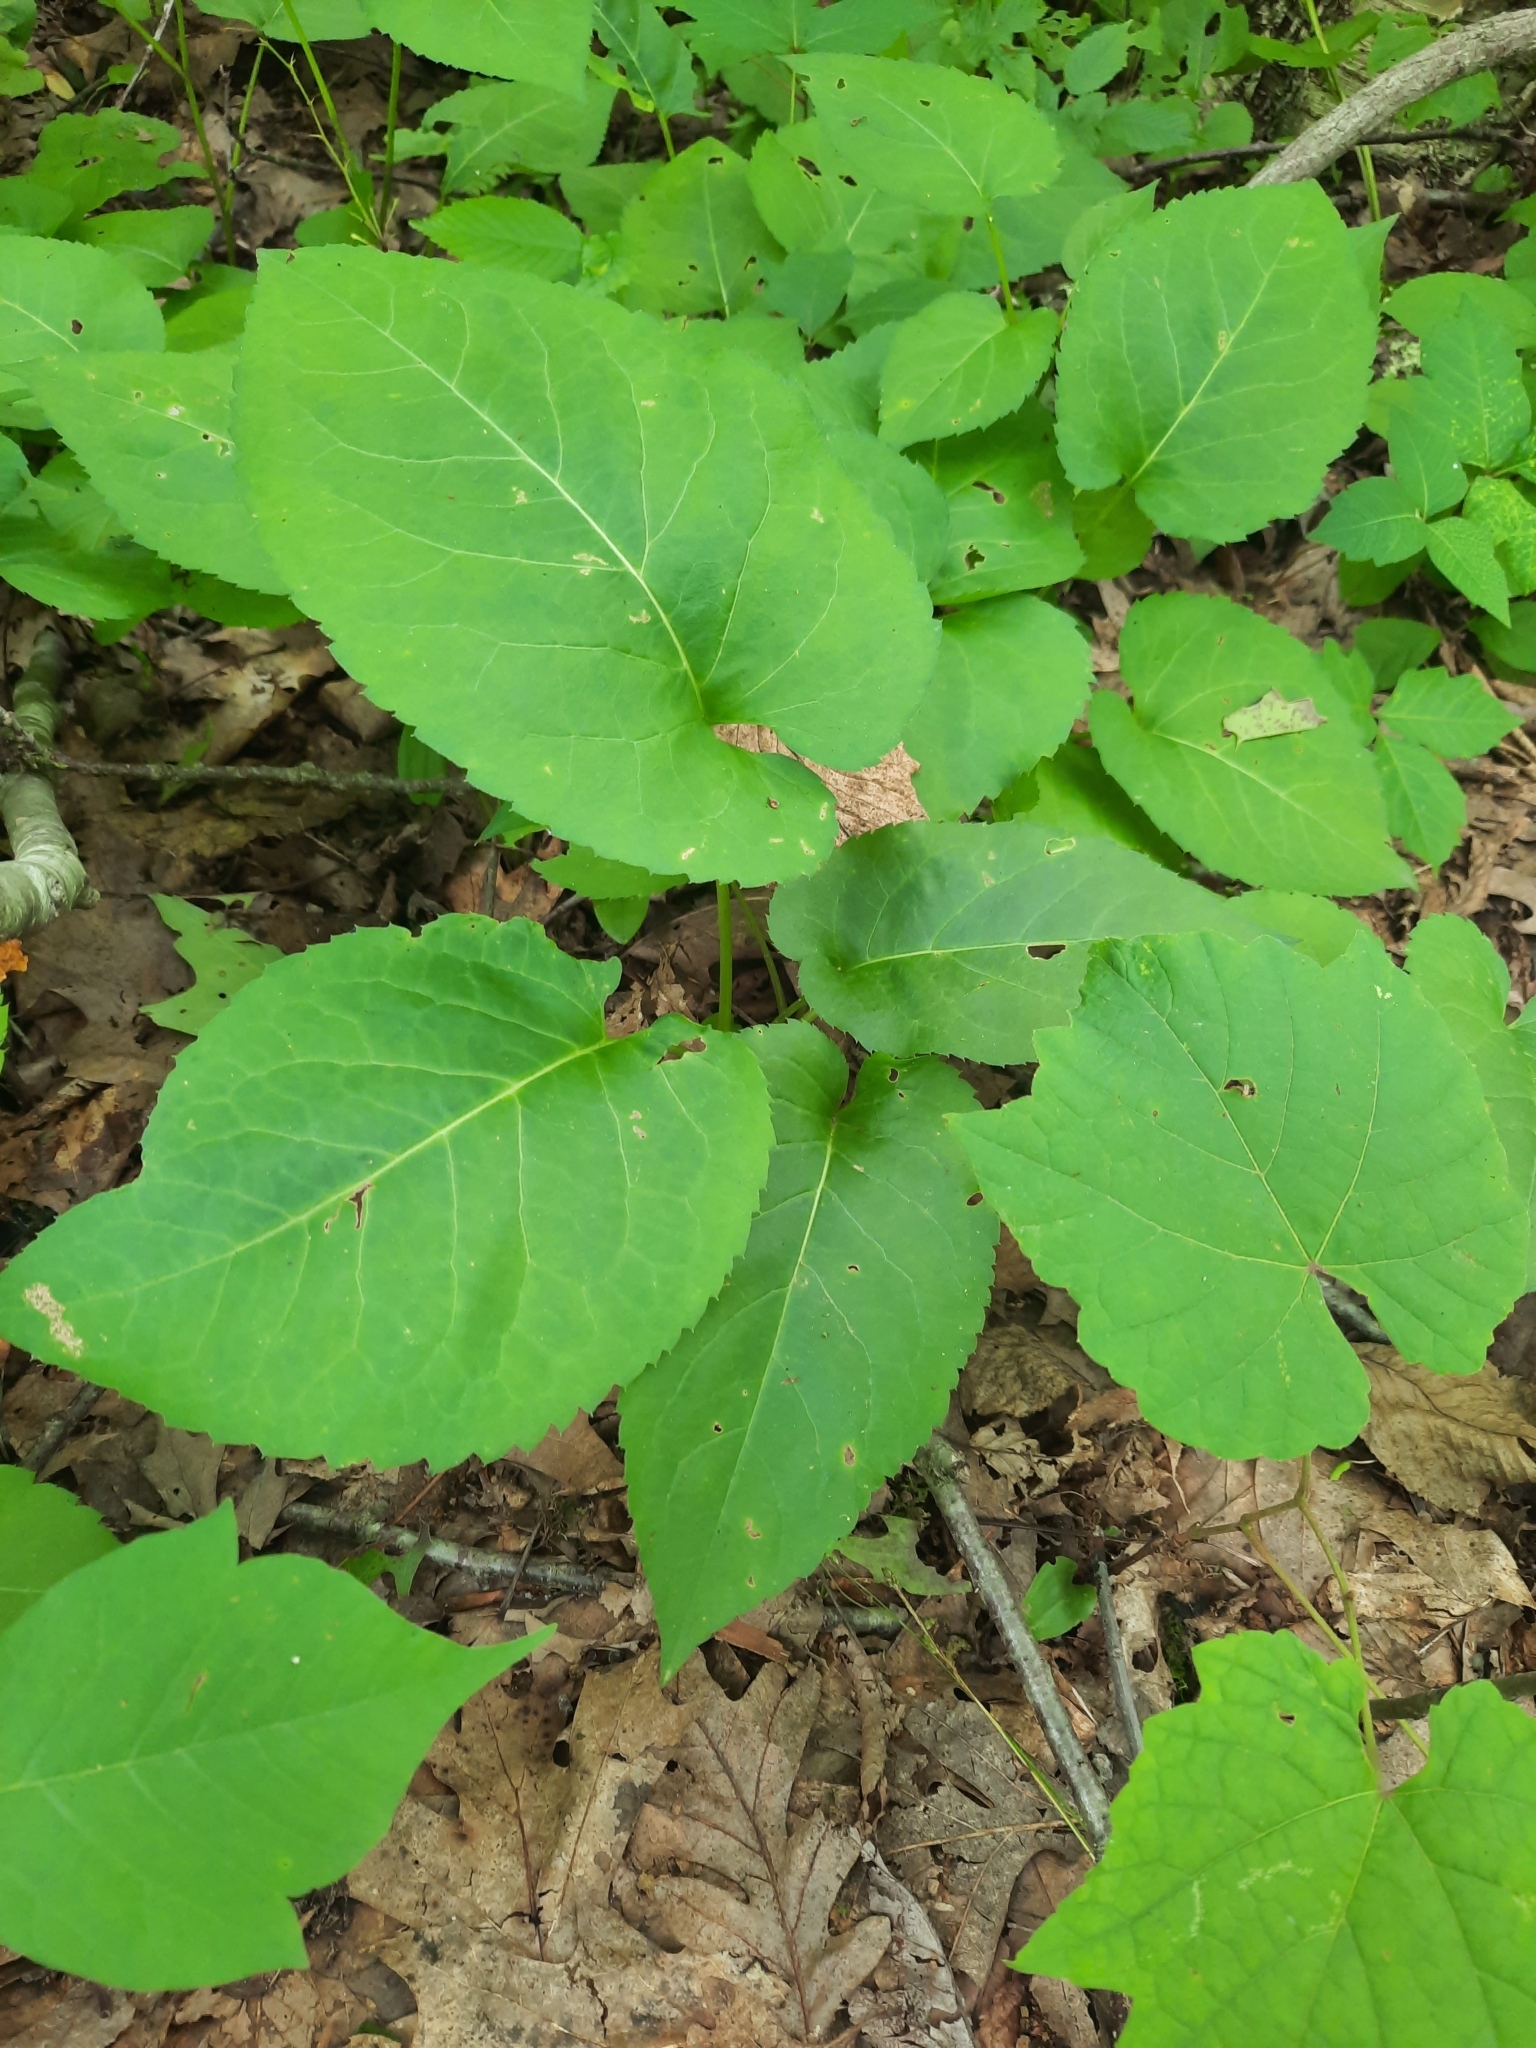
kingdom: Plantae
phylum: Tracheophyta
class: Magnoliopsida
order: Asterales
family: Asteraceae
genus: Eurybia
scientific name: Eurybia macrophylla
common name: Big-leaved aster
